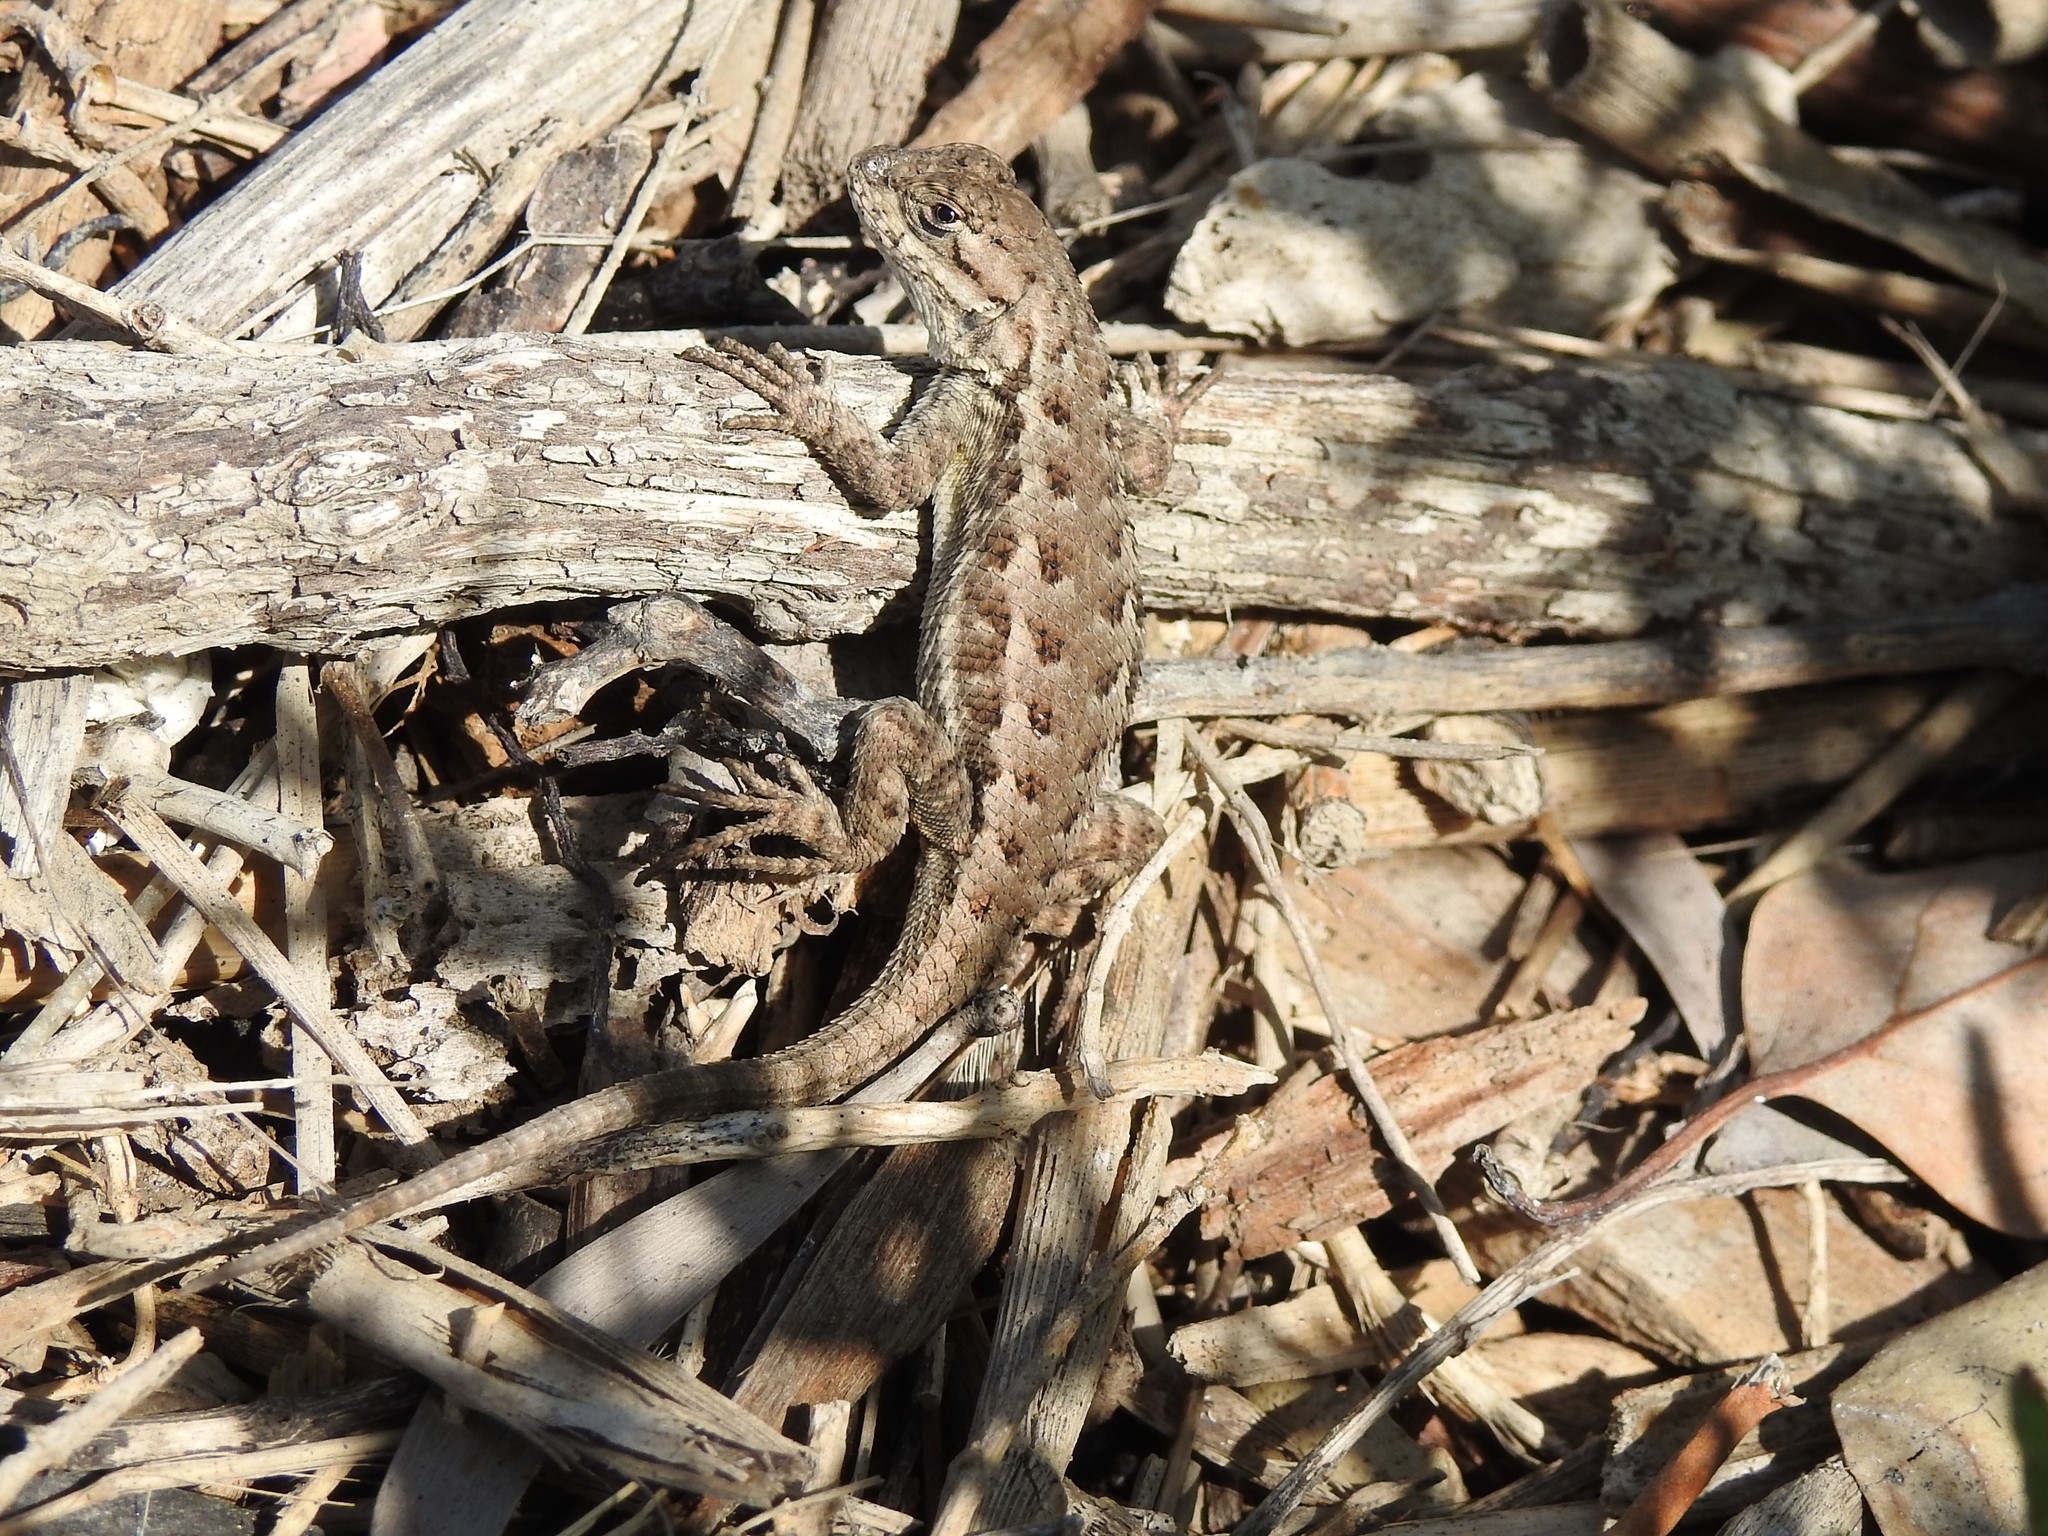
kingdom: Animalia
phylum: Chordata
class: Squamata
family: Phrynosomatidae
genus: Sceloporus
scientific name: Sceloporus occidentalis
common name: Western fence lizard
